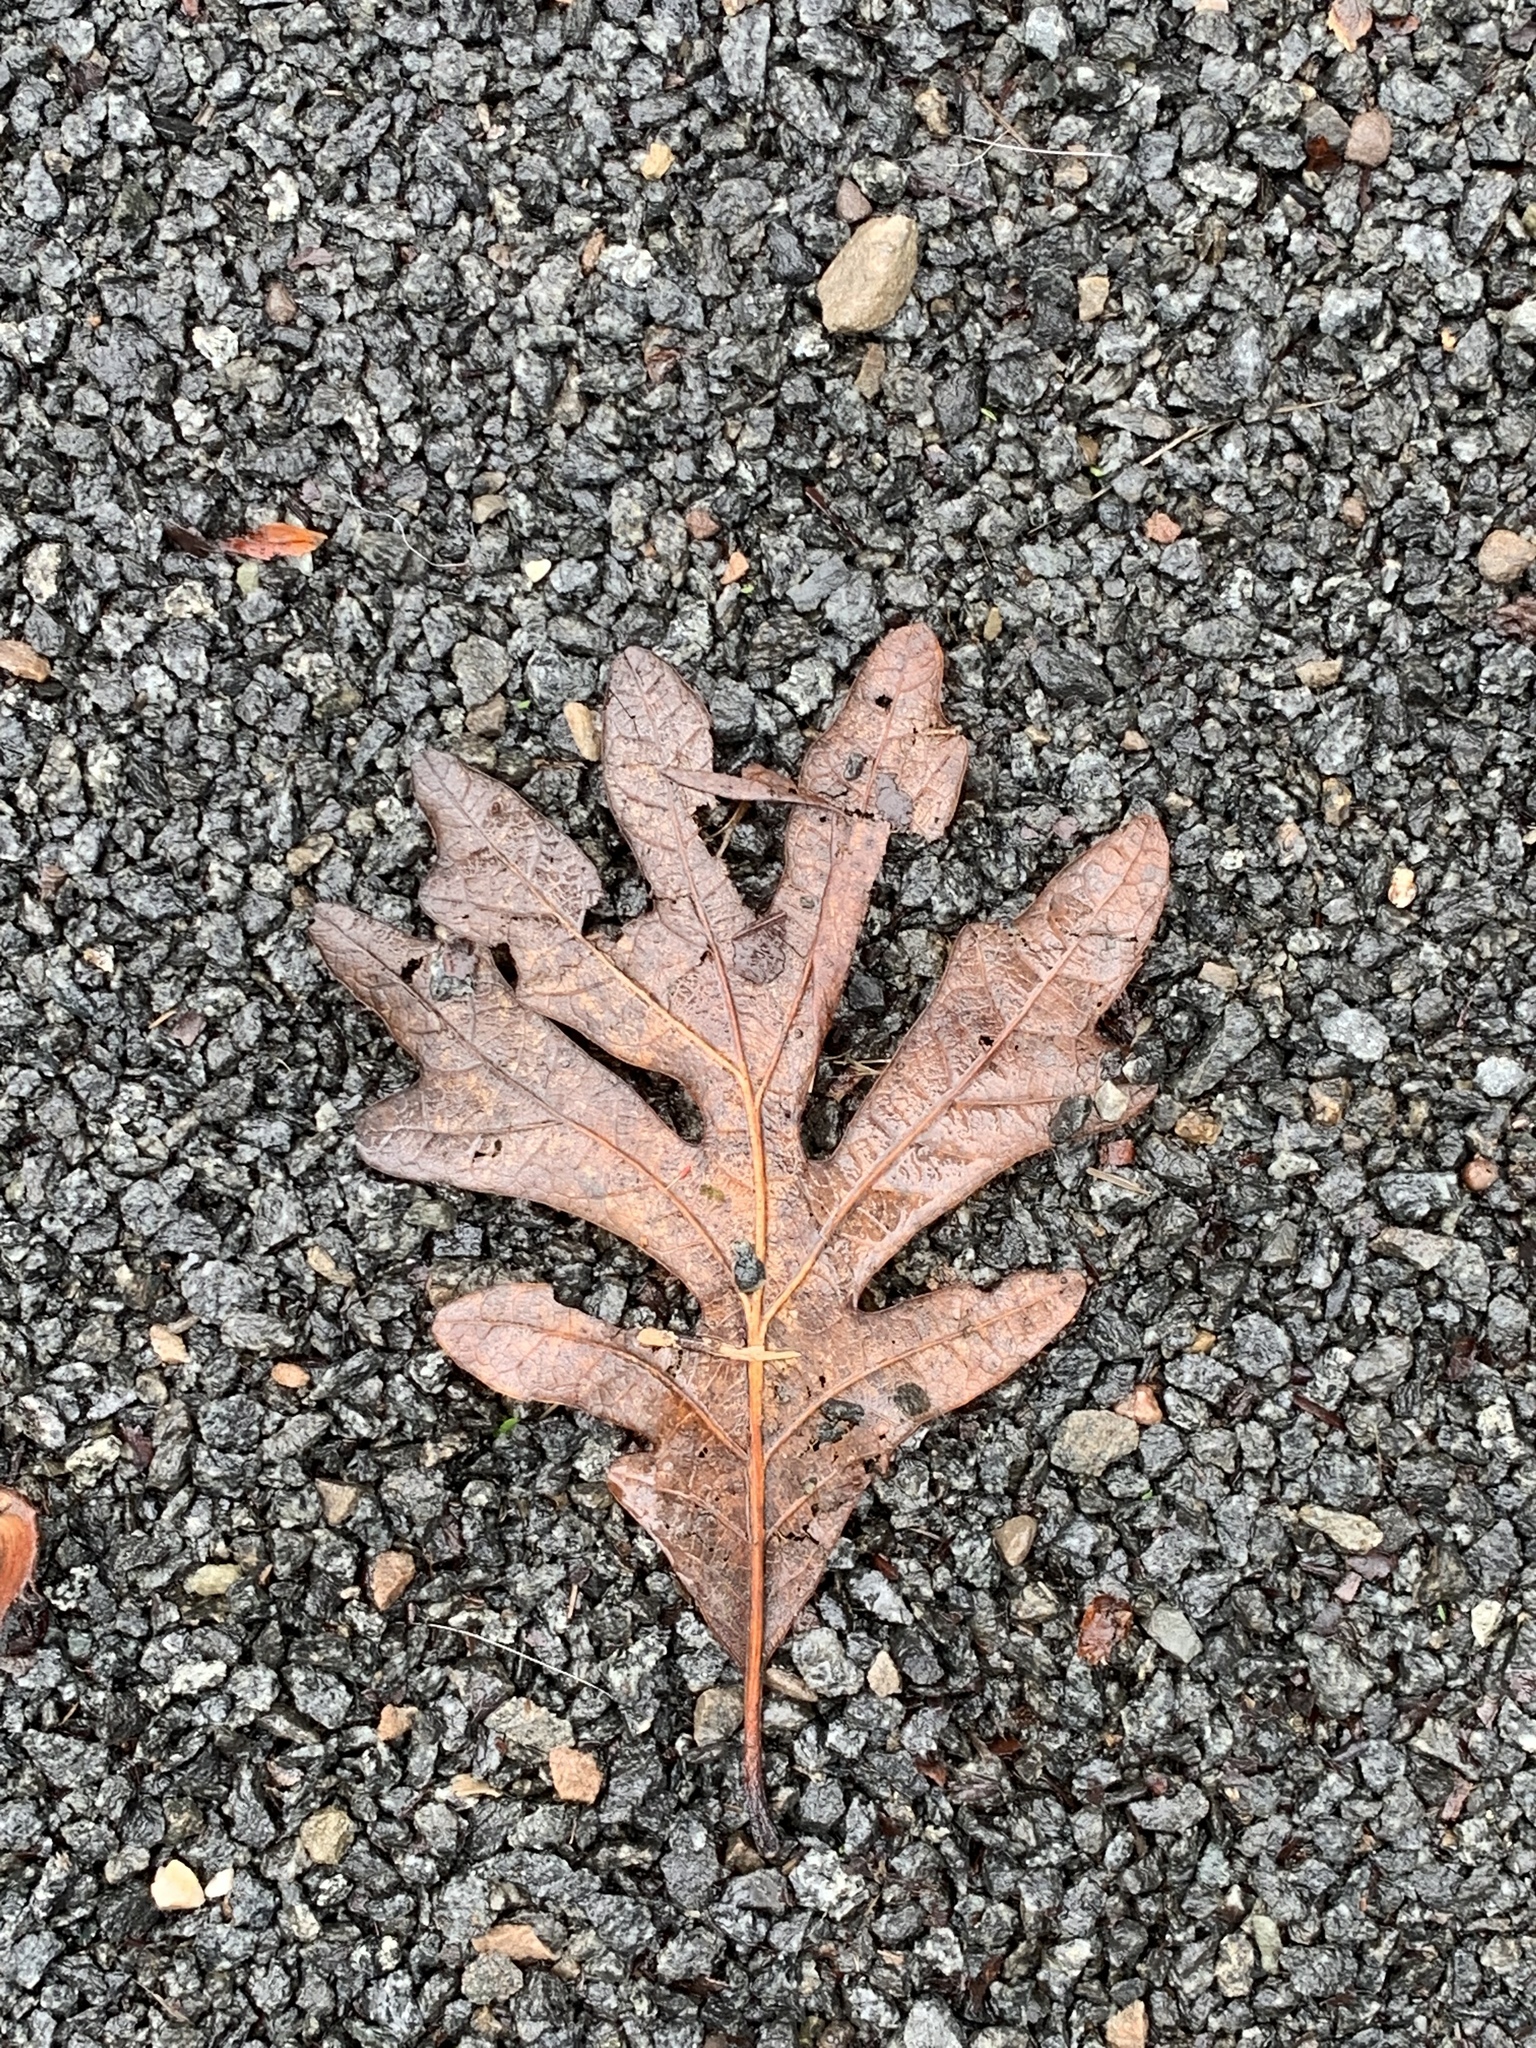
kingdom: Plantae
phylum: Tracheophyta
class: Magnoliopsida
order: Fagales
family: Fagaceae
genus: Quercus
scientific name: Quercus alba
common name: White oak
